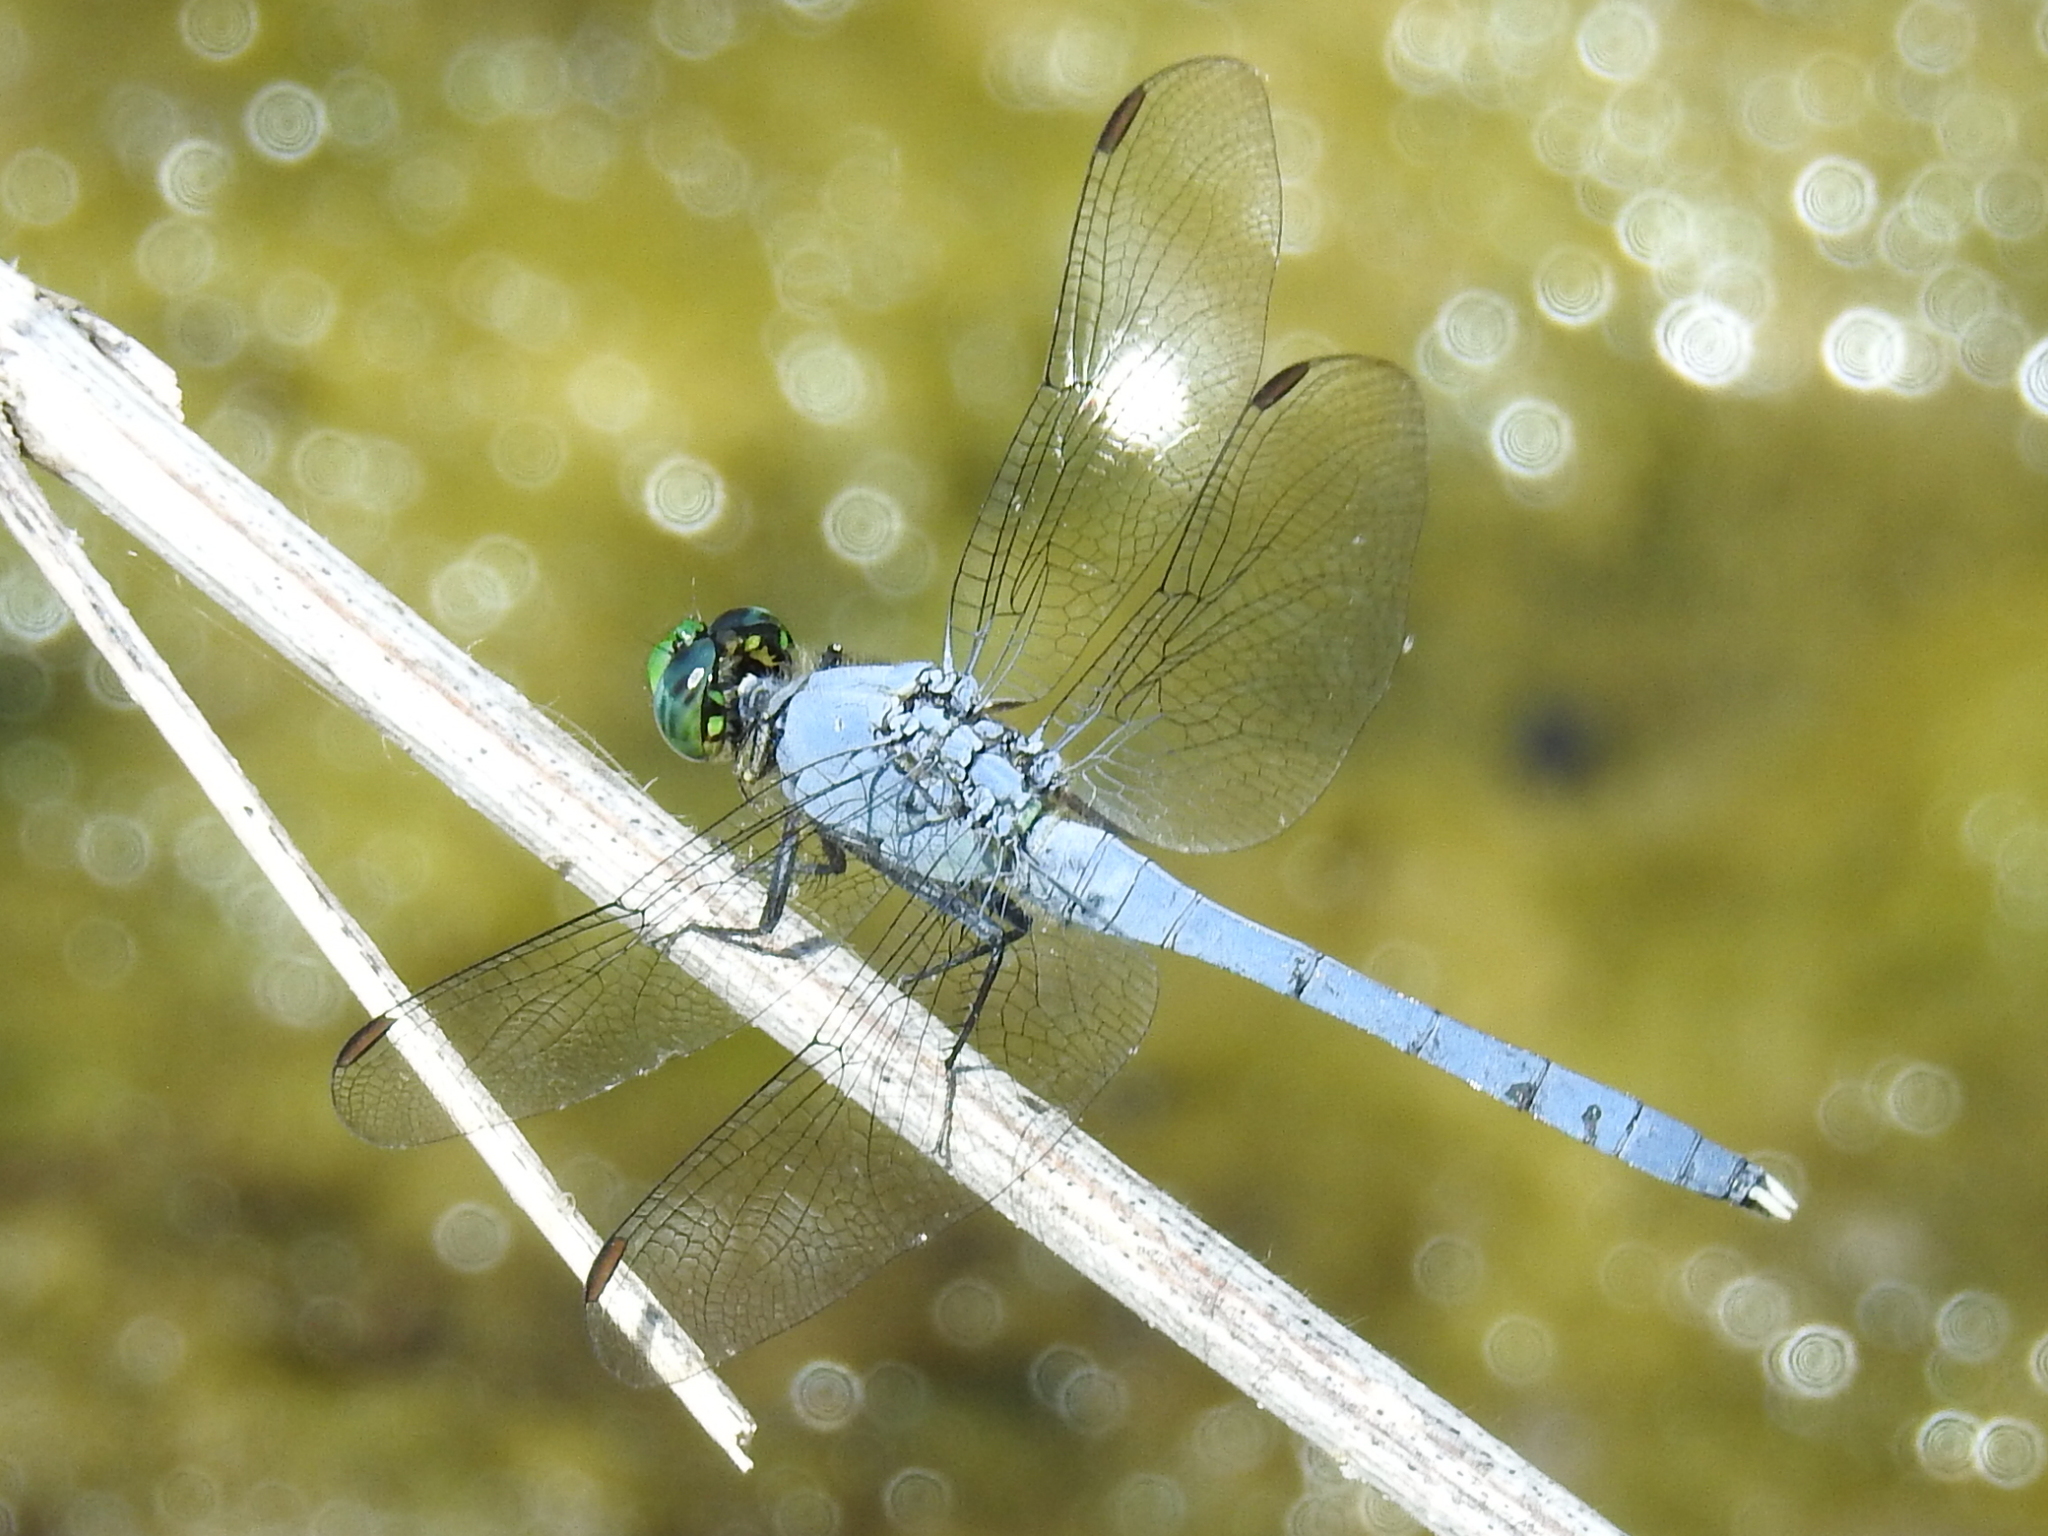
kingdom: Animalia
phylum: Arthropoda
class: Insecta
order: Odonata
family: Libellulidae
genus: Erythemis
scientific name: Erythemis simplicicollis
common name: Eastern pondhawk
